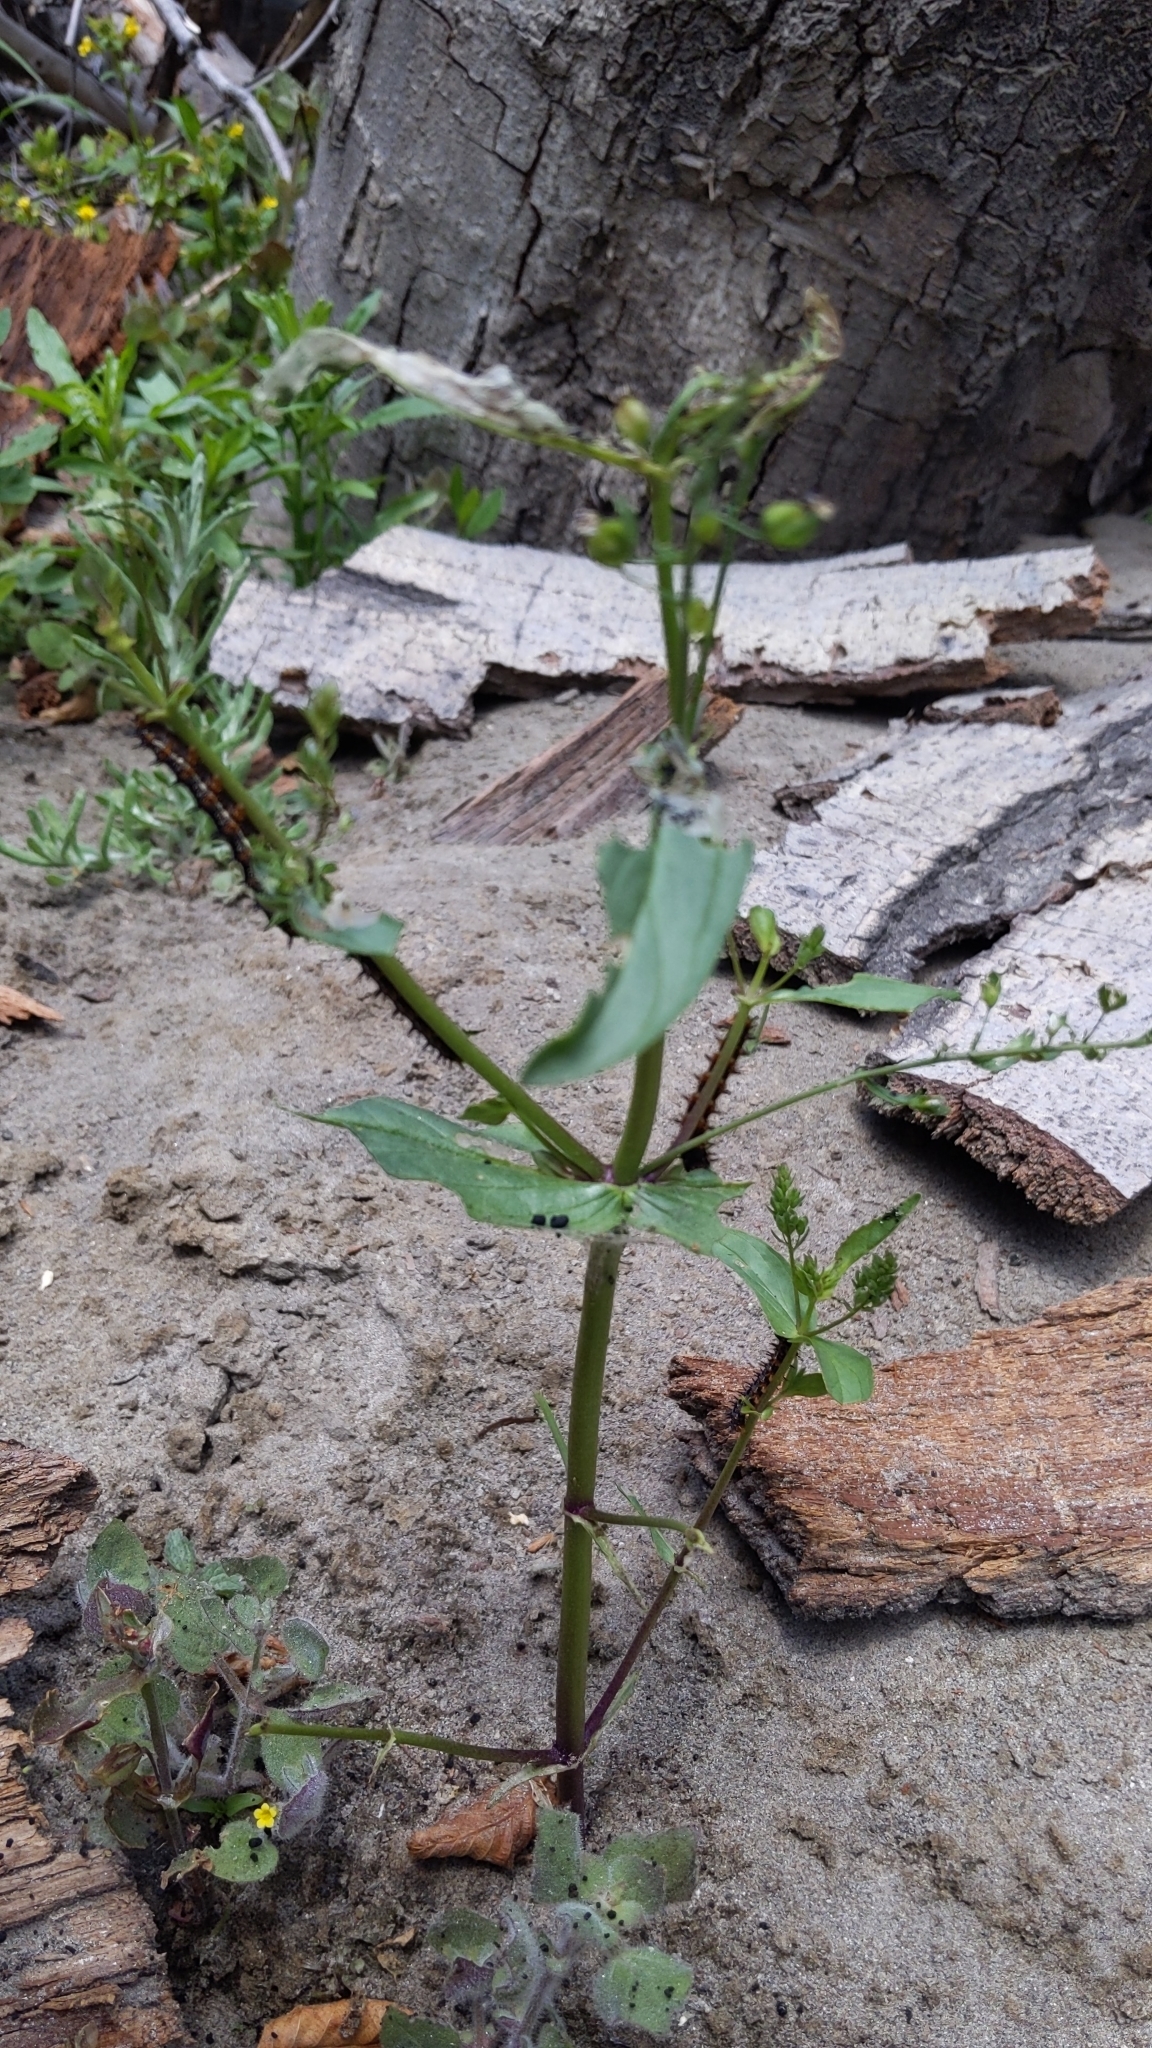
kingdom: Plantae
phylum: Tracheophyta
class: Magnoliopsida
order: Lamiales
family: Plantaginaceae
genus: Veronica
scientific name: Veronica anagallis-aquatica
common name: Water speedwell
